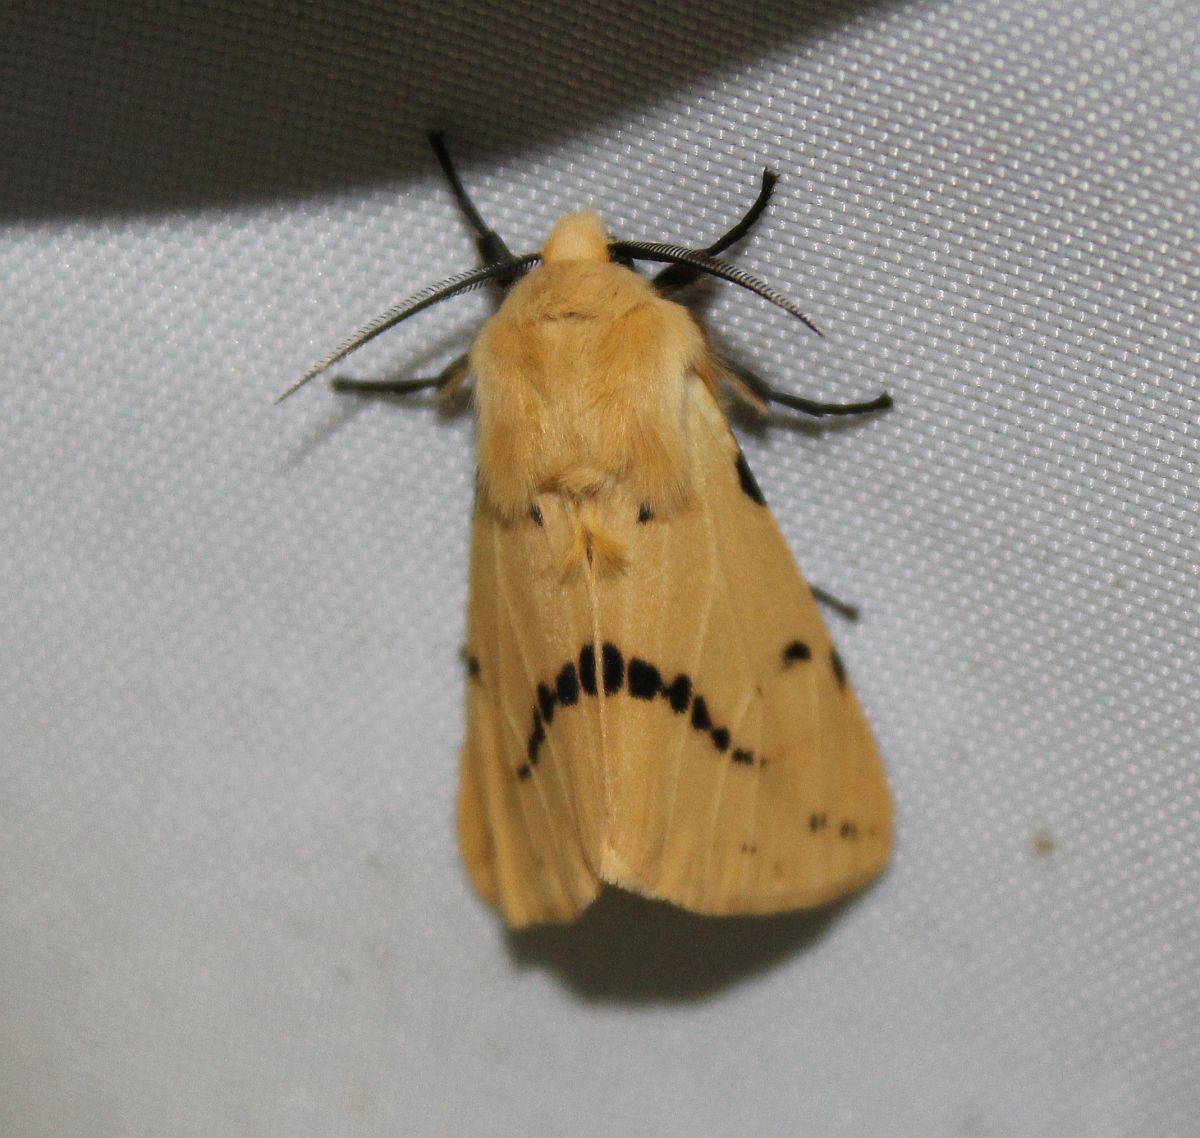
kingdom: Animalia
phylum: Arthropoda
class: Insecta
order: Lepidoptera
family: Erebidae
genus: Spilarctia
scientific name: Spilarctia lutea
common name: Buff ermine
